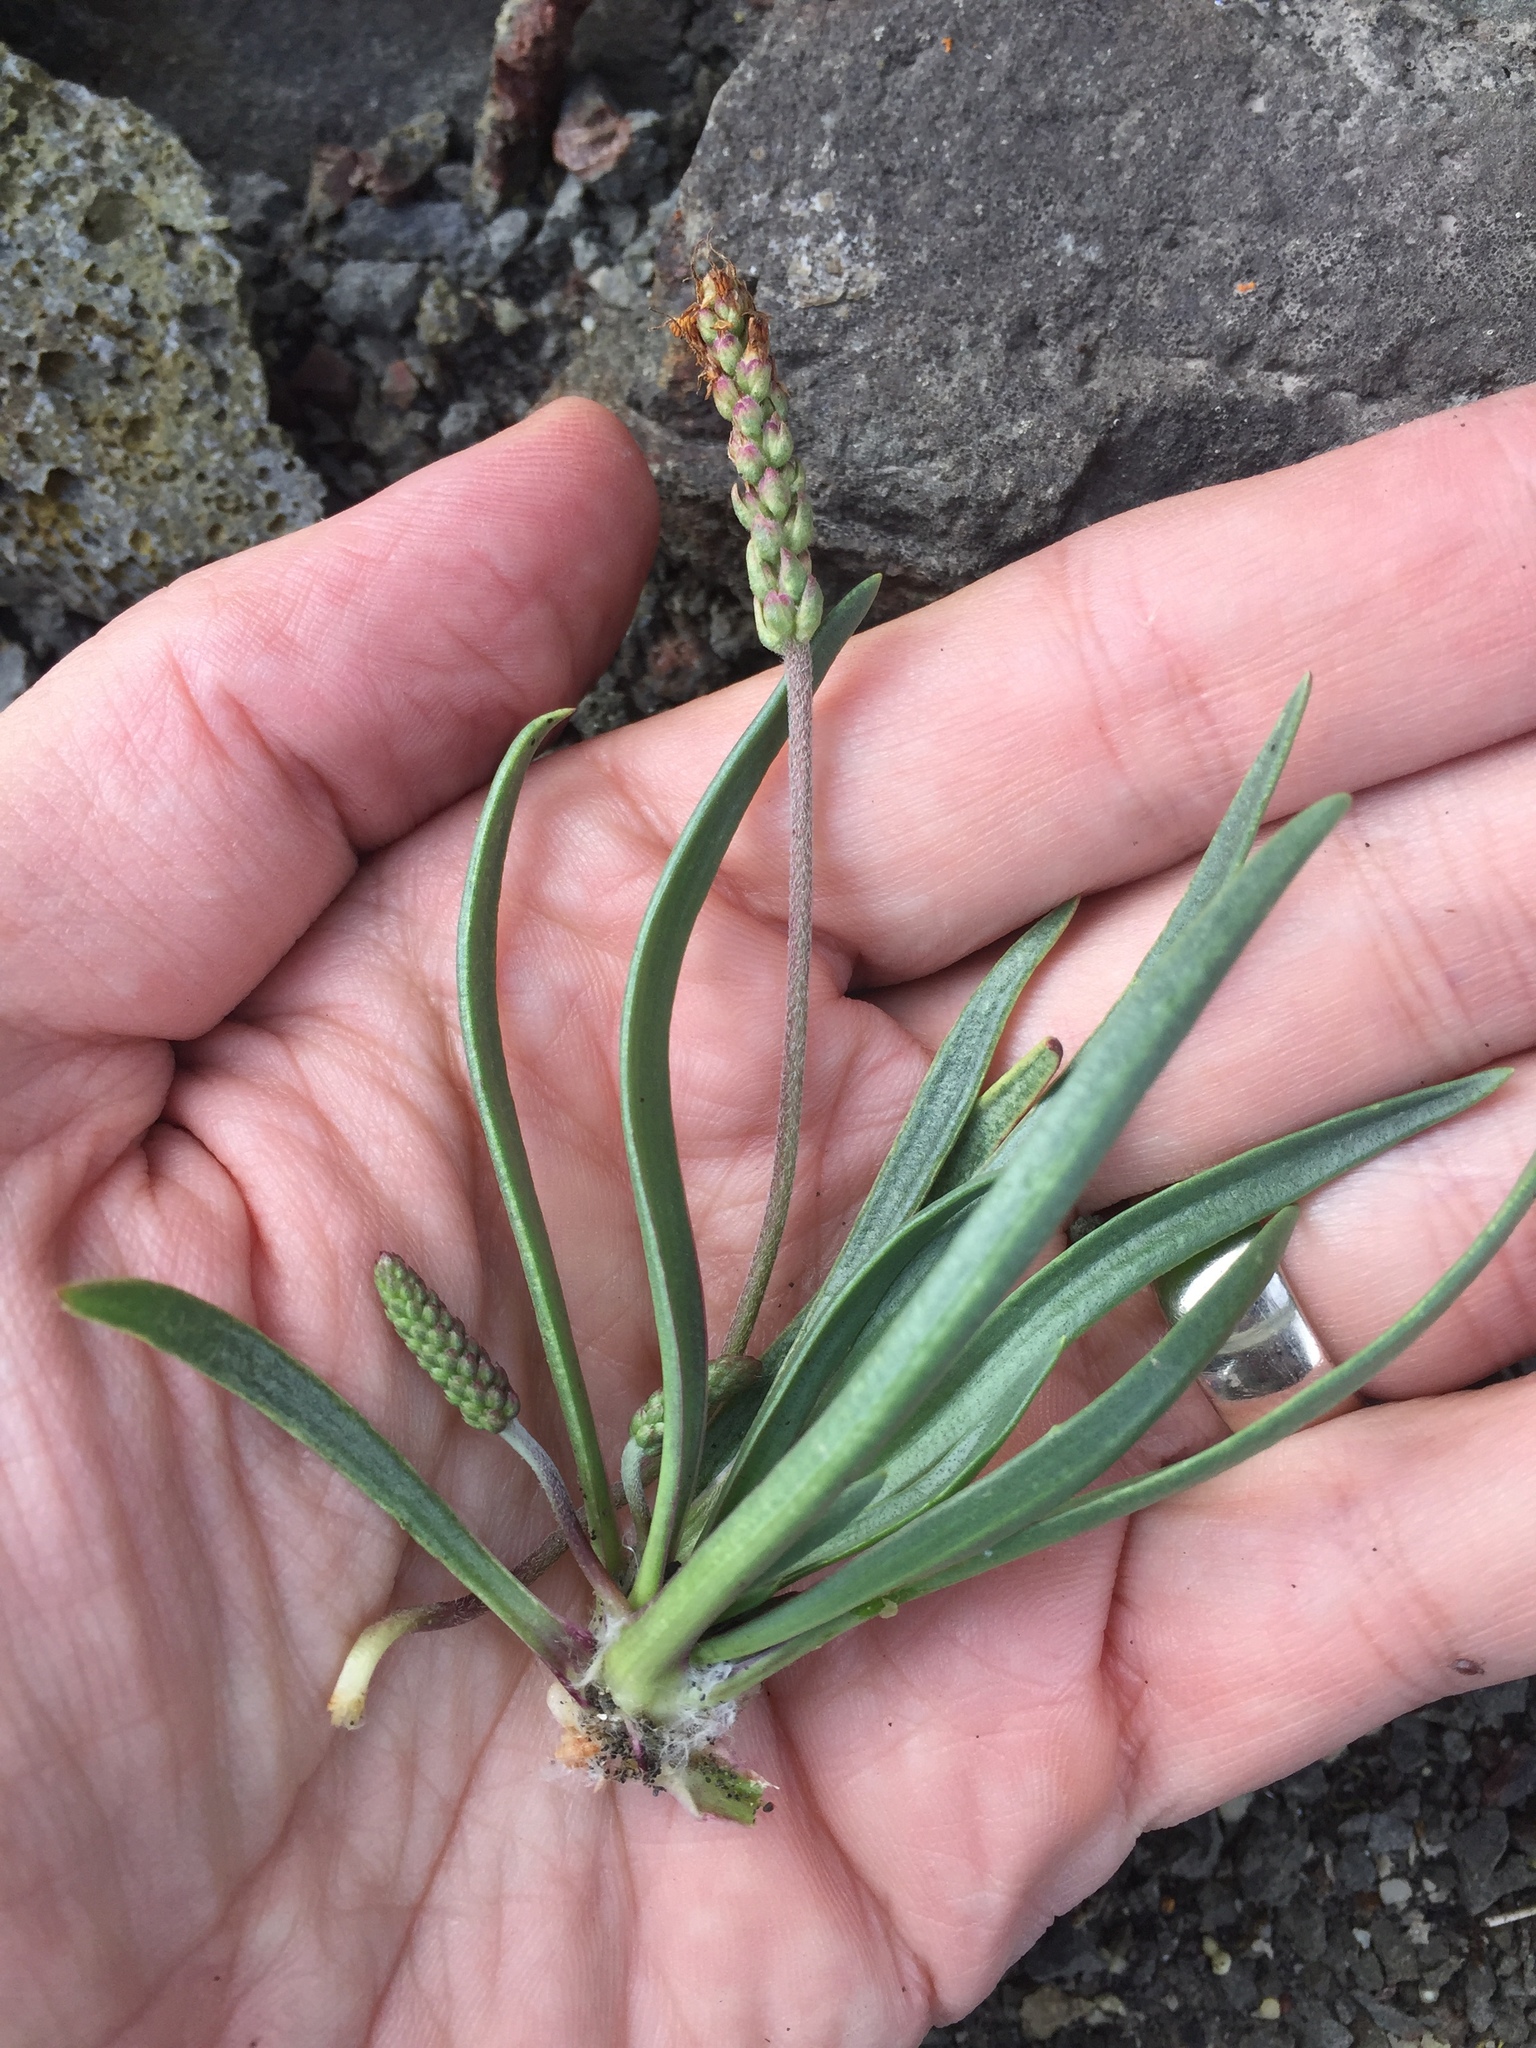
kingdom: Plantae
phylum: Tracheophyta
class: Magnoliopsida
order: Lamiales
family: Plantaginaceae
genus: Plantago
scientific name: Plantago maritima
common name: Sea plantain
